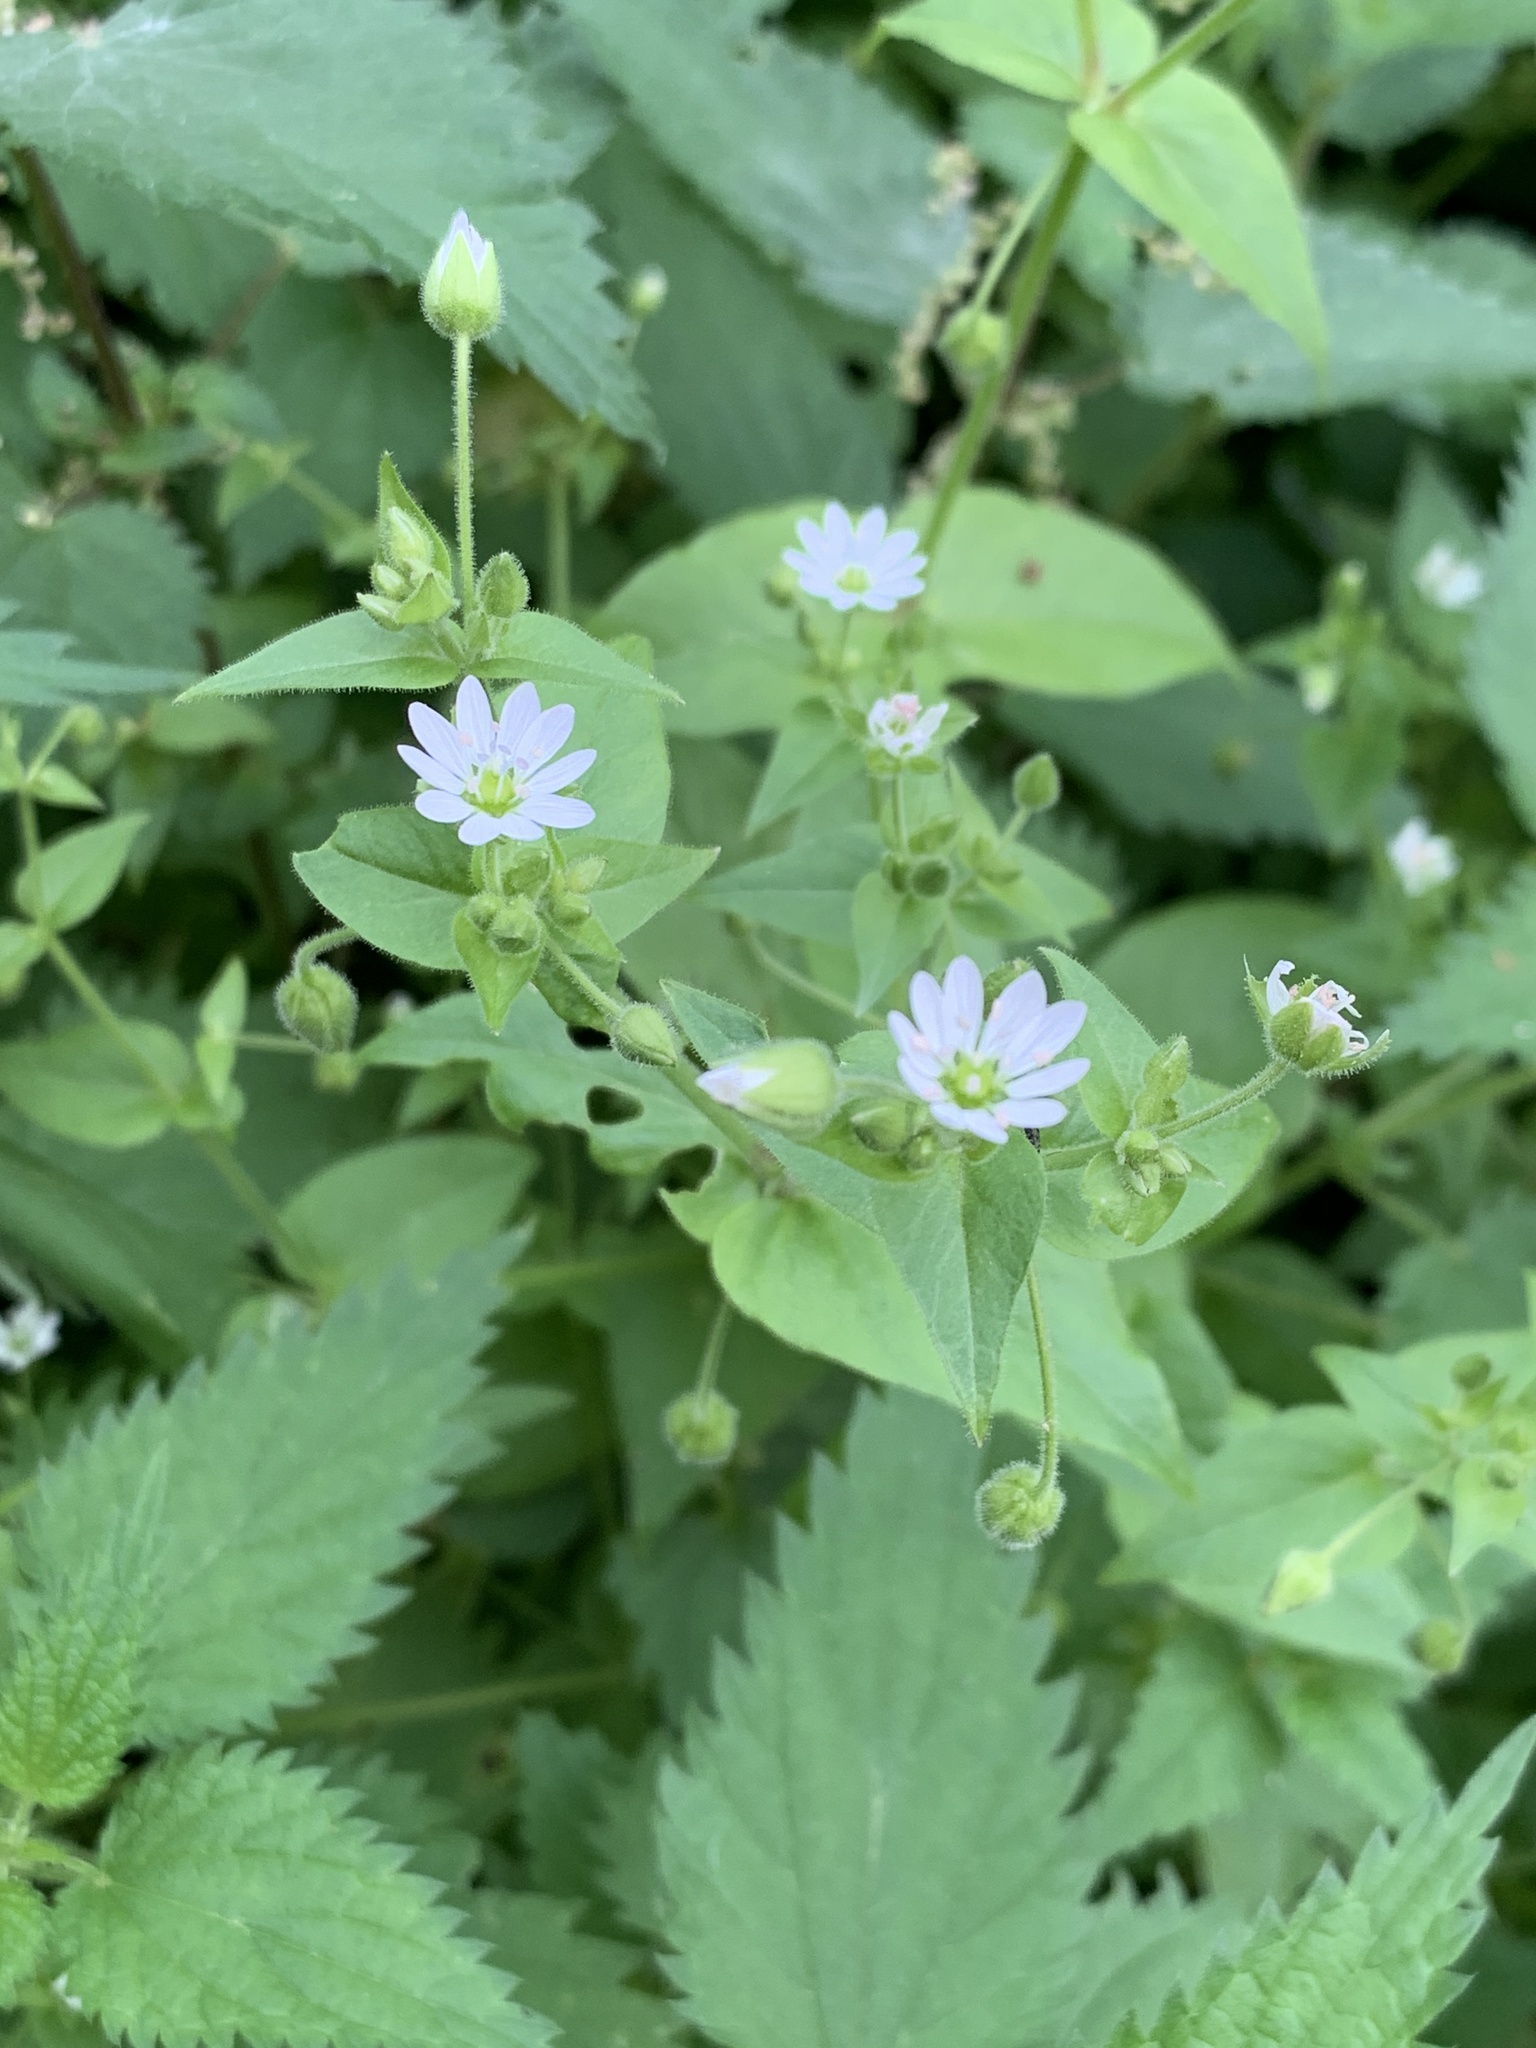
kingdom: Plantae
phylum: Tracheophyta
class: Magnoliopsida
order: Caryophyllales
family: Caryophyllaceae
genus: Stellaria
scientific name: Stellaria aquatica
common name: Water chickweed
